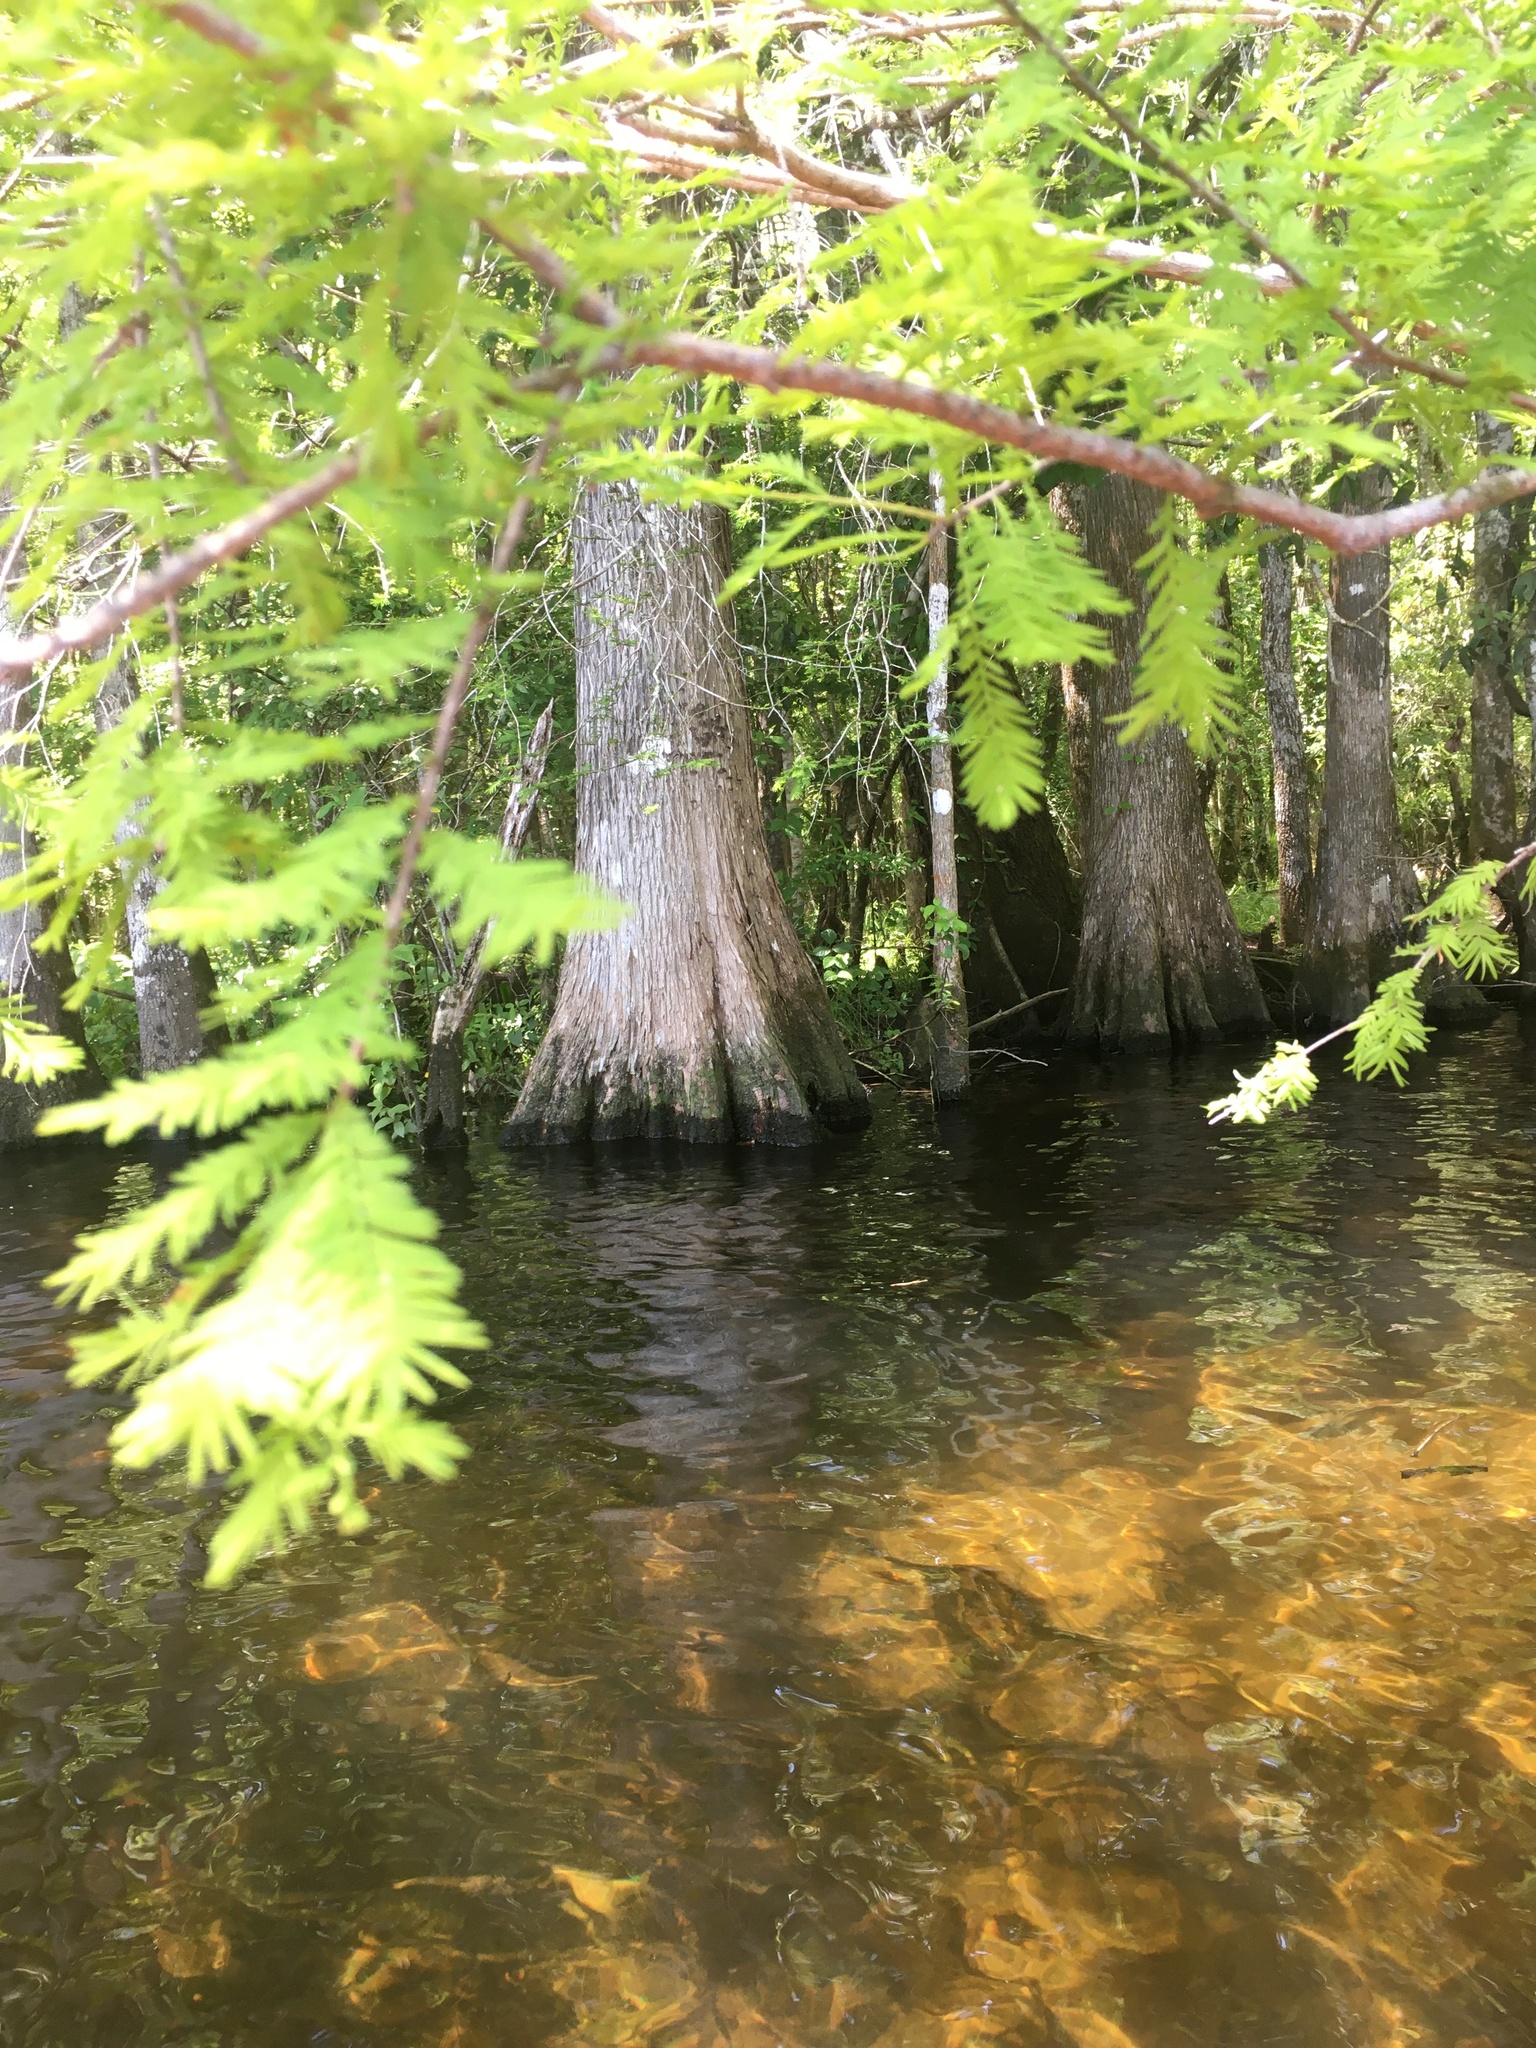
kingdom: Plantae
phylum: Tracheophyta
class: Pinopsida
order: Pinales
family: Cupressaceae
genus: Taxodium
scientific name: Taxodium distichum
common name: Bald cypress
